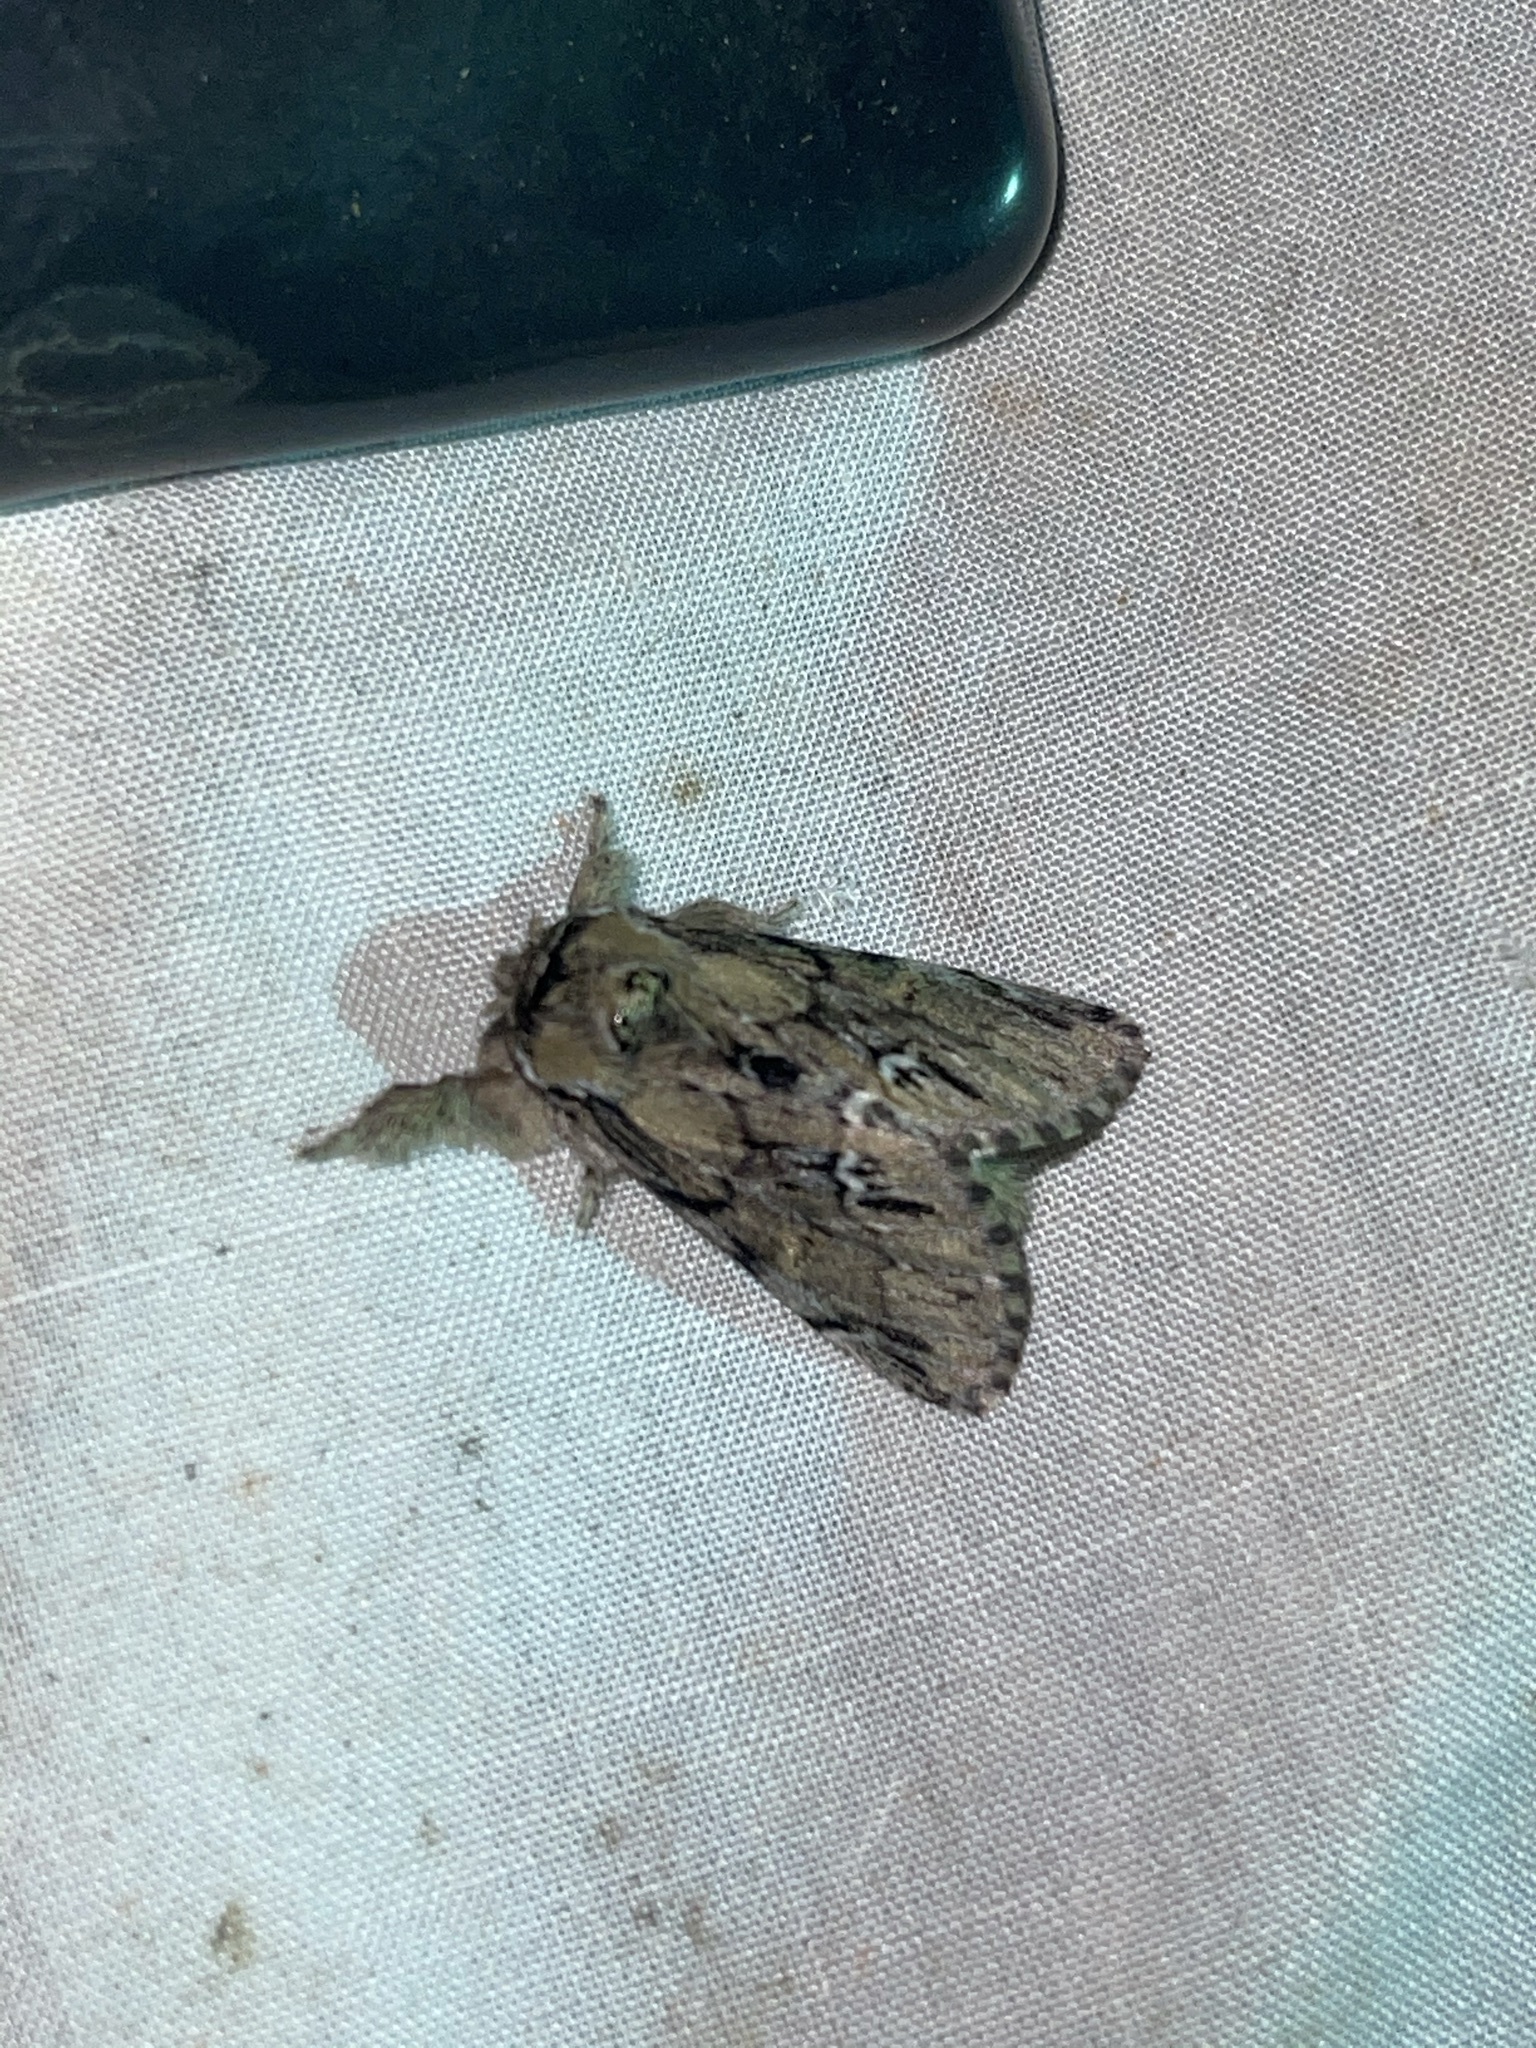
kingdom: Animalia
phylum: Arthropoda
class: Insecta
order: Lepidoptera
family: Notodontidae
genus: Paraeschra
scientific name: Paraeschra georgica
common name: Georgian prominent
